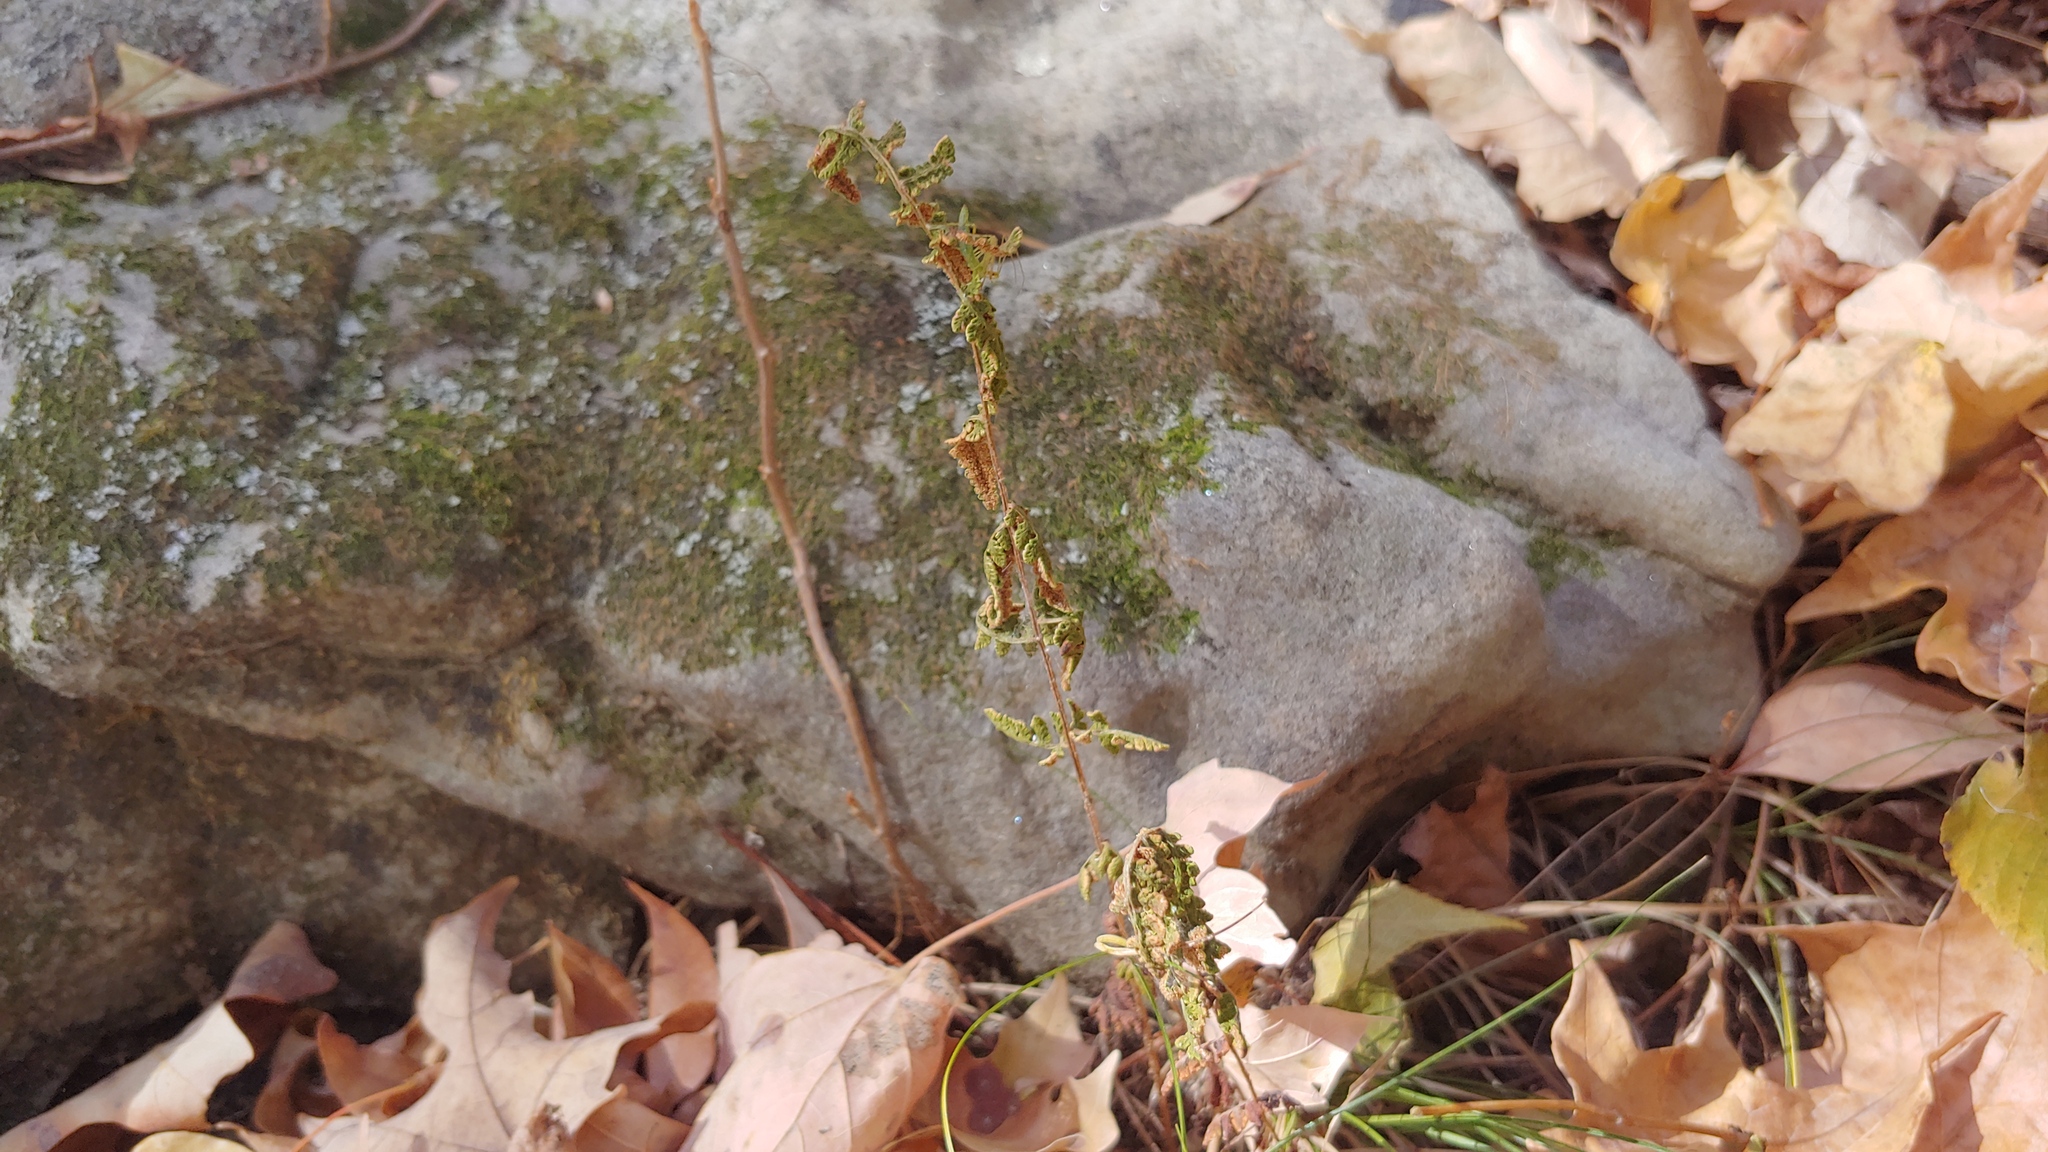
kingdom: Plantae
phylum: Tracheophyta
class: Polypodiopsida
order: Polypodiales
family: Pteridaceae
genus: Myriopteris
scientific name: Myriopteris lanosa
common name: Hairy lip fern
